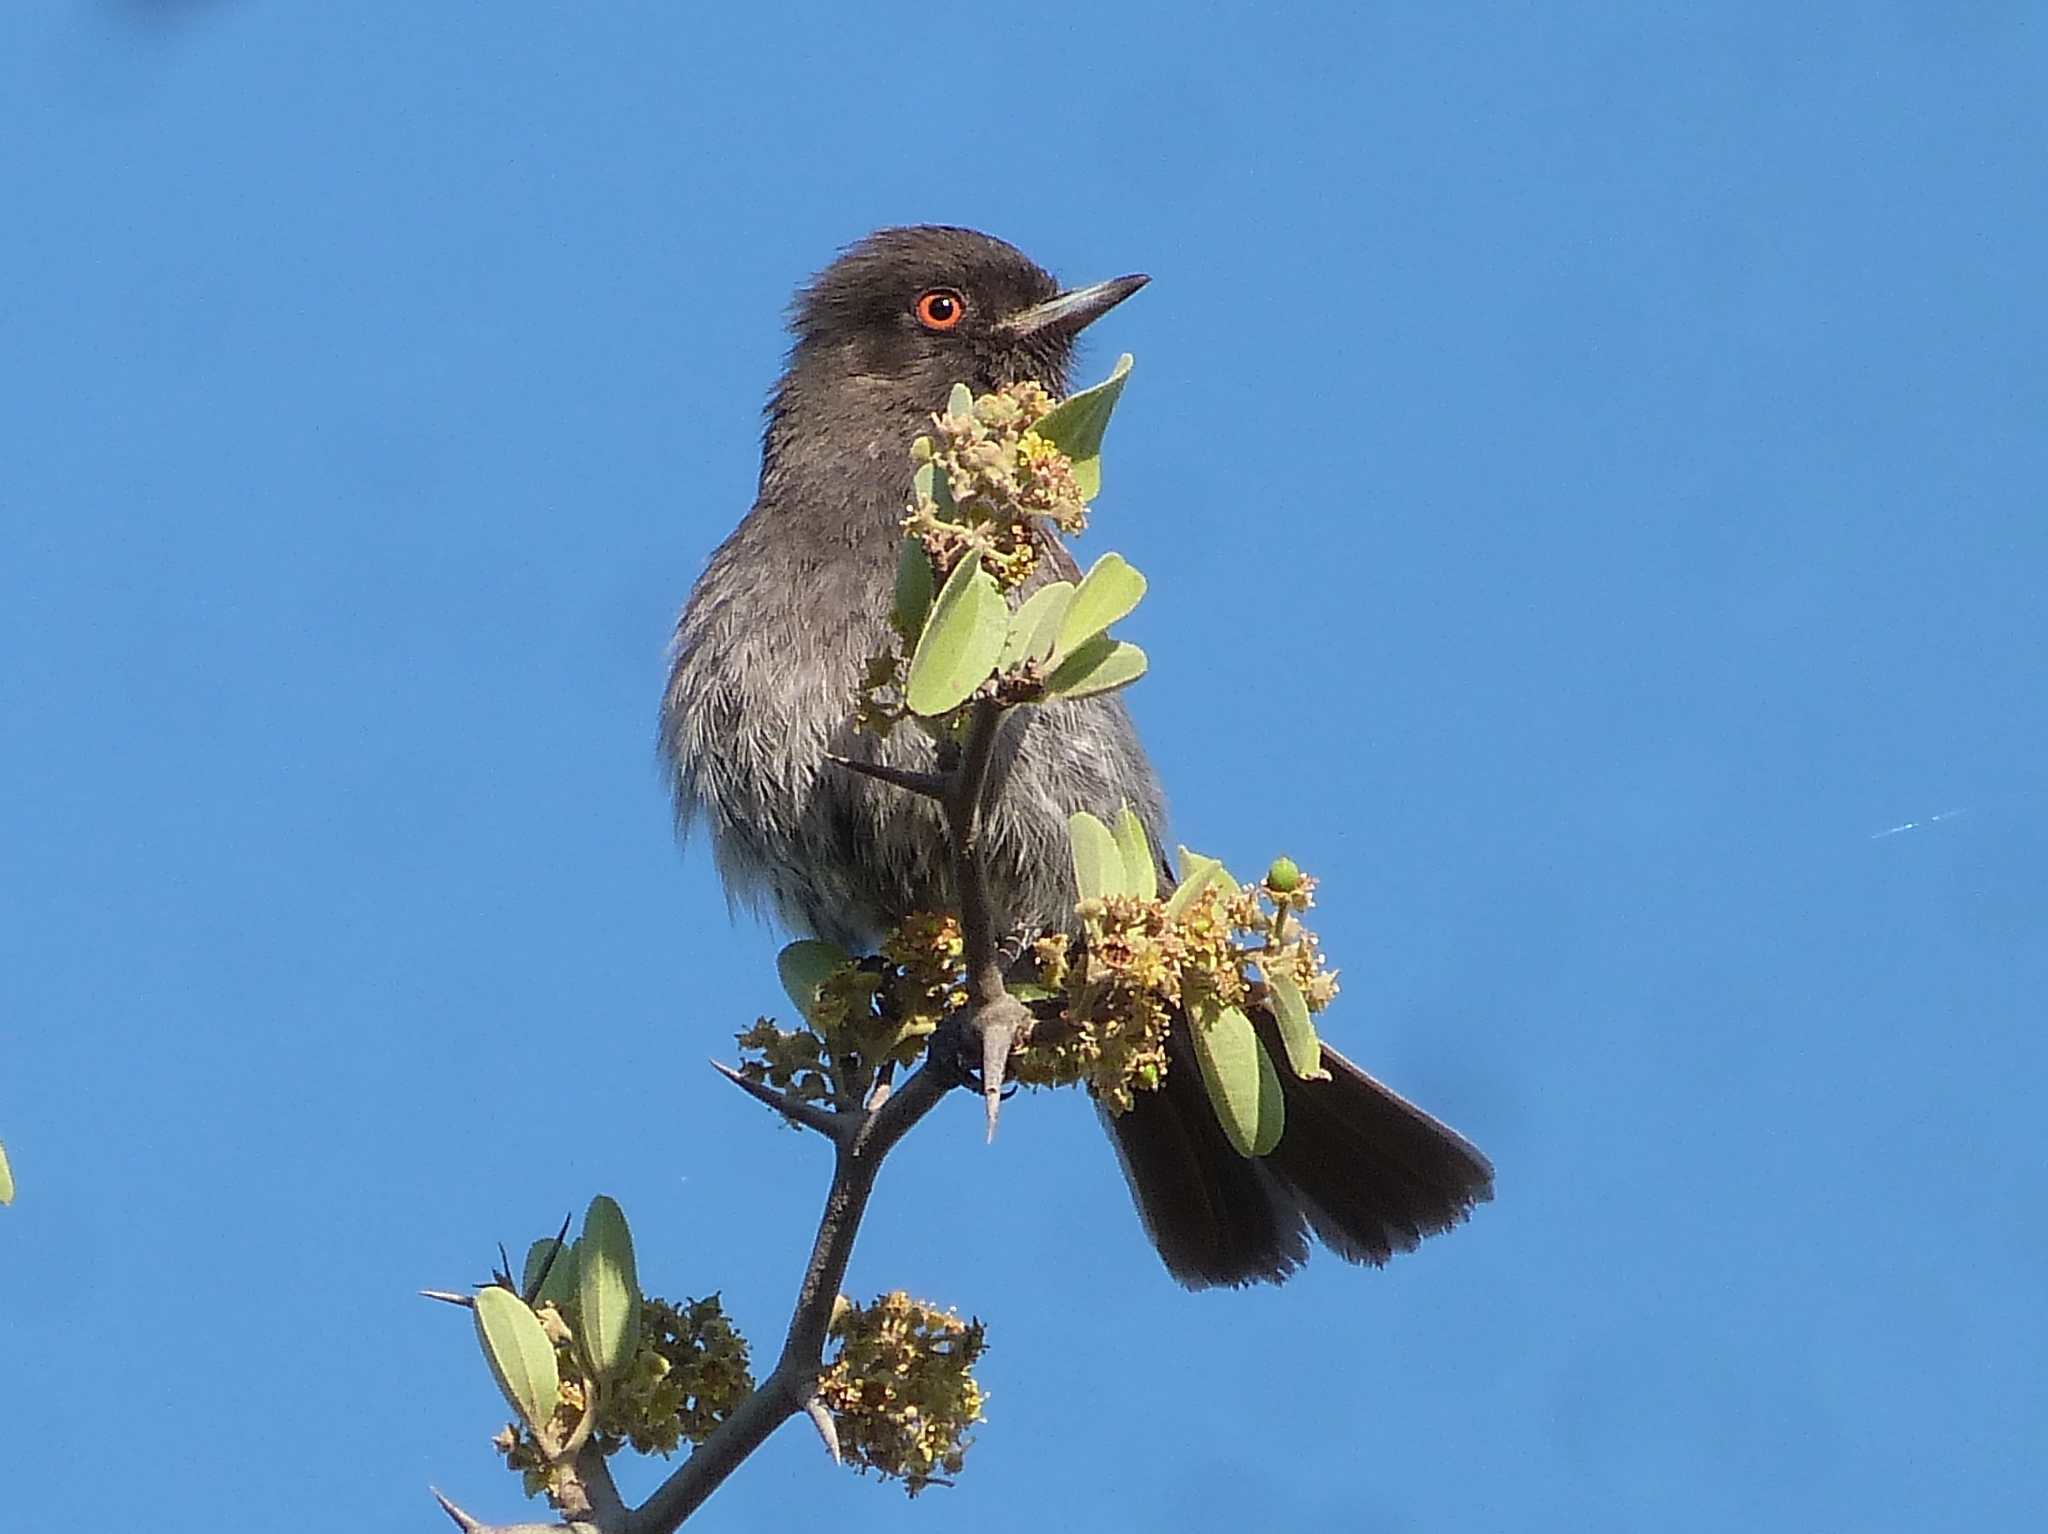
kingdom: Animalia
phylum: Chordata
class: Aves
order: Passeriformes
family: Tyrannidae
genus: Knipolegus
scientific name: Knipolegus striaticeps
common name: Cinereous tyrant
